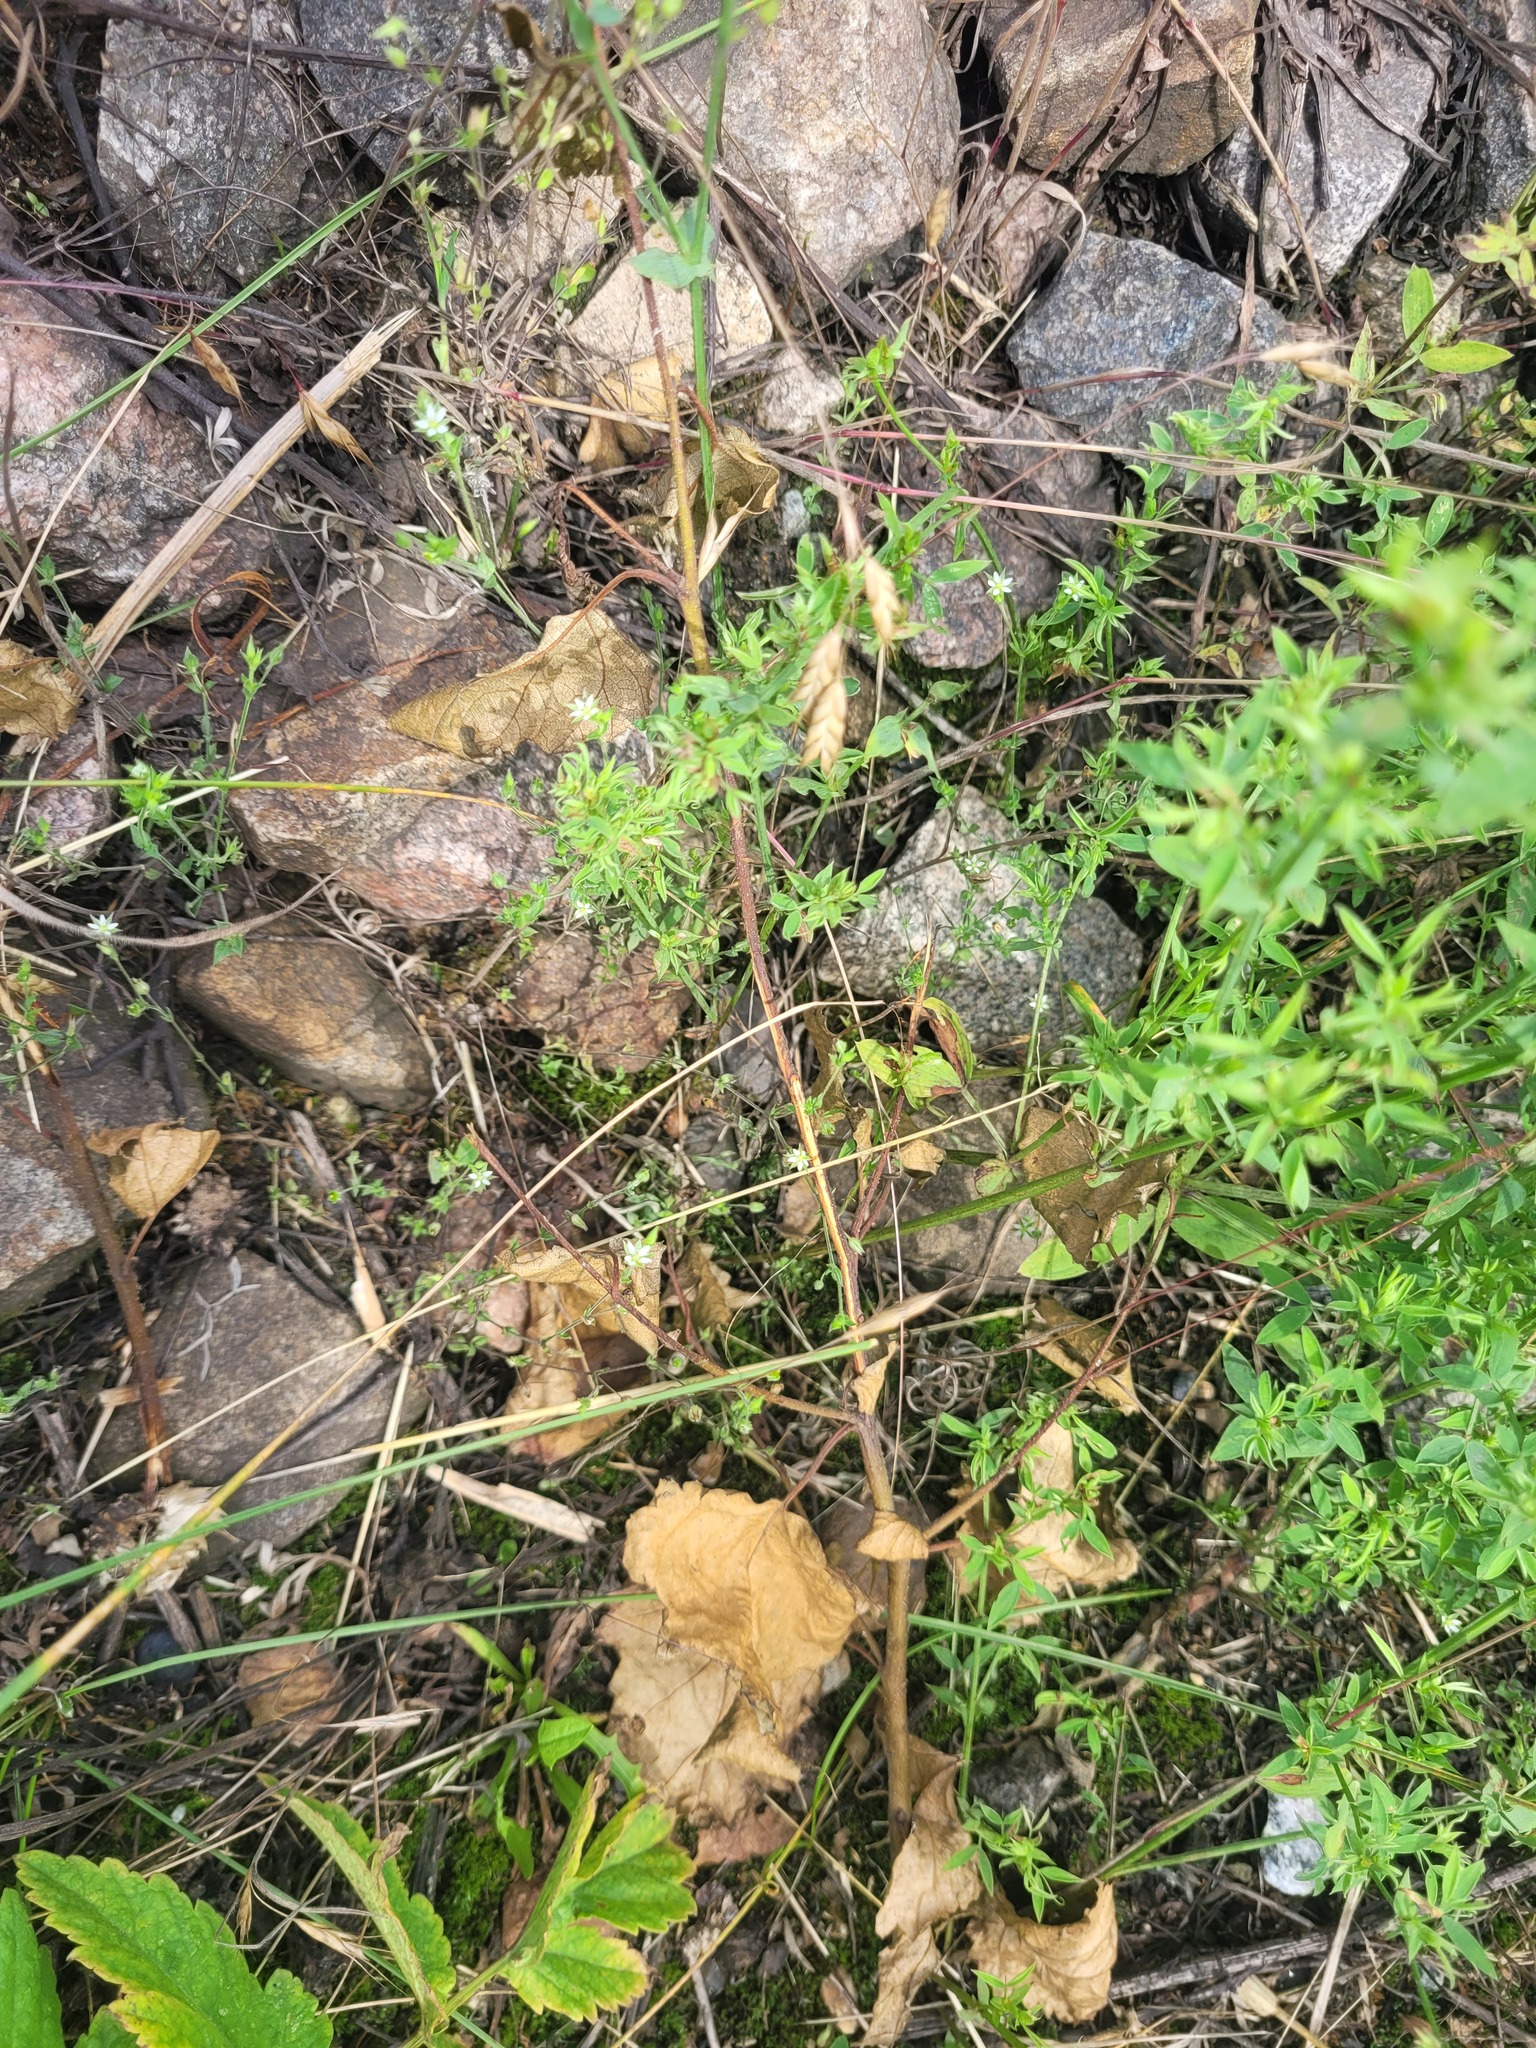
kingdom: Plantae
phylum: Tracheophyta
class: Magnoliopsida
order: Caryophyllales
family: Caryophyllaceae
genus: Arenaria
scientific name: Arenaria serpyllifolia
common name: Thyme-leaved sandwort
